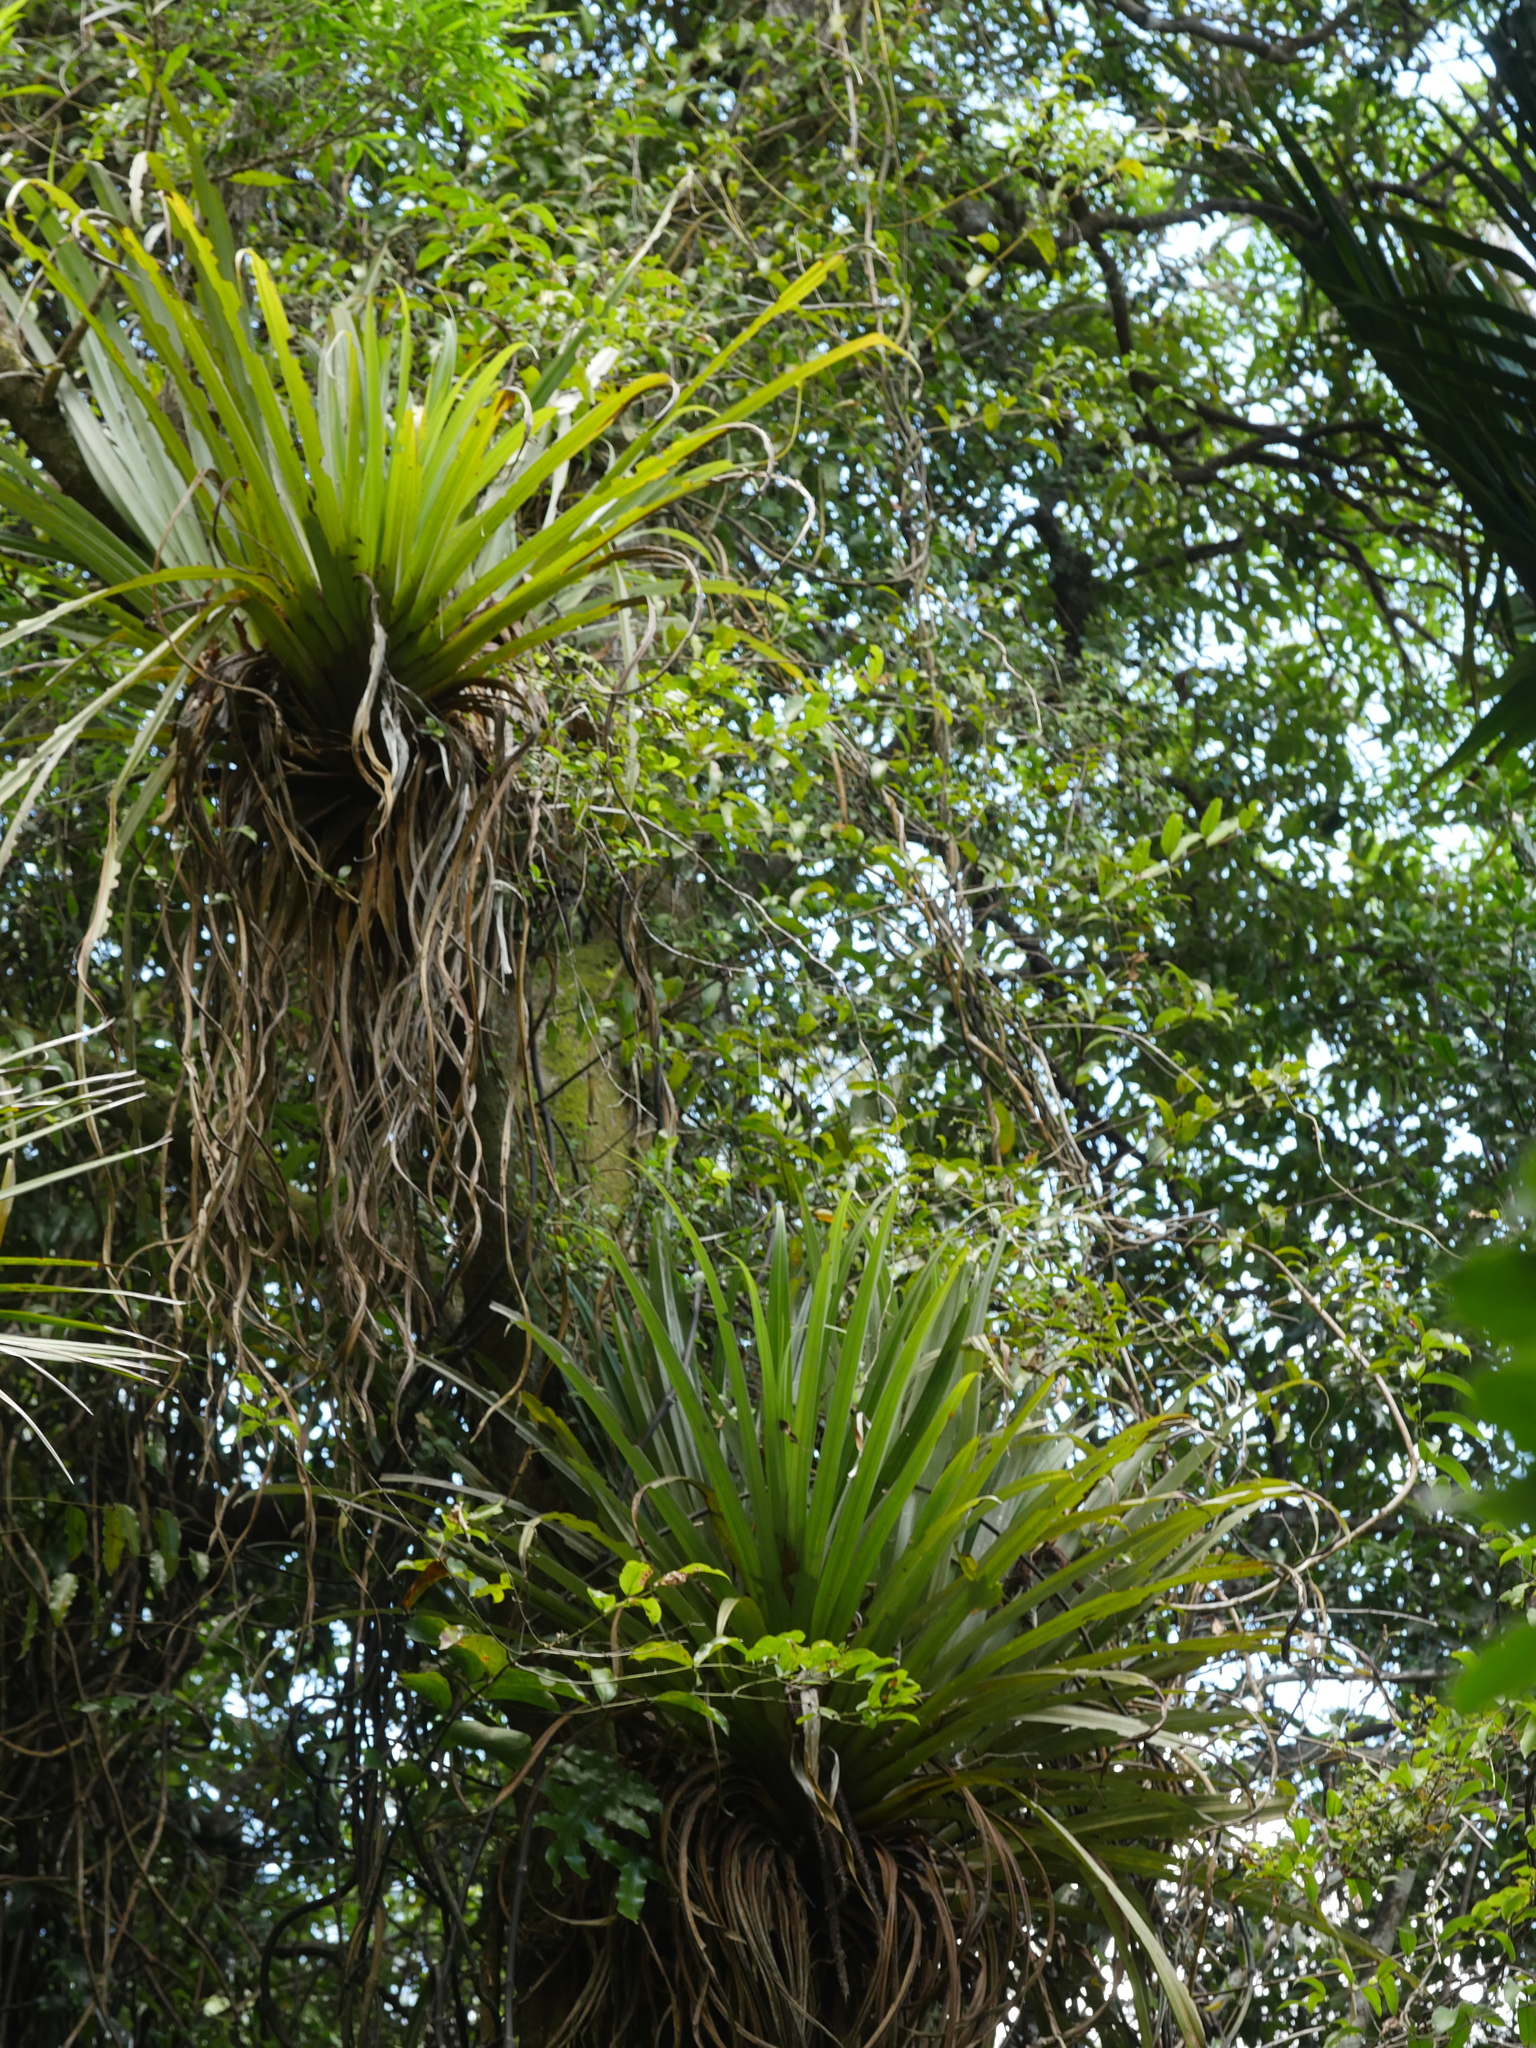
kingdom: Plantae
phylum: Tracheophyta
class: Magnoliopsida
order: Laurales
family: Lauraceae
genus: Beilschmiedia
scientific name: Beilschmiedia tawa
